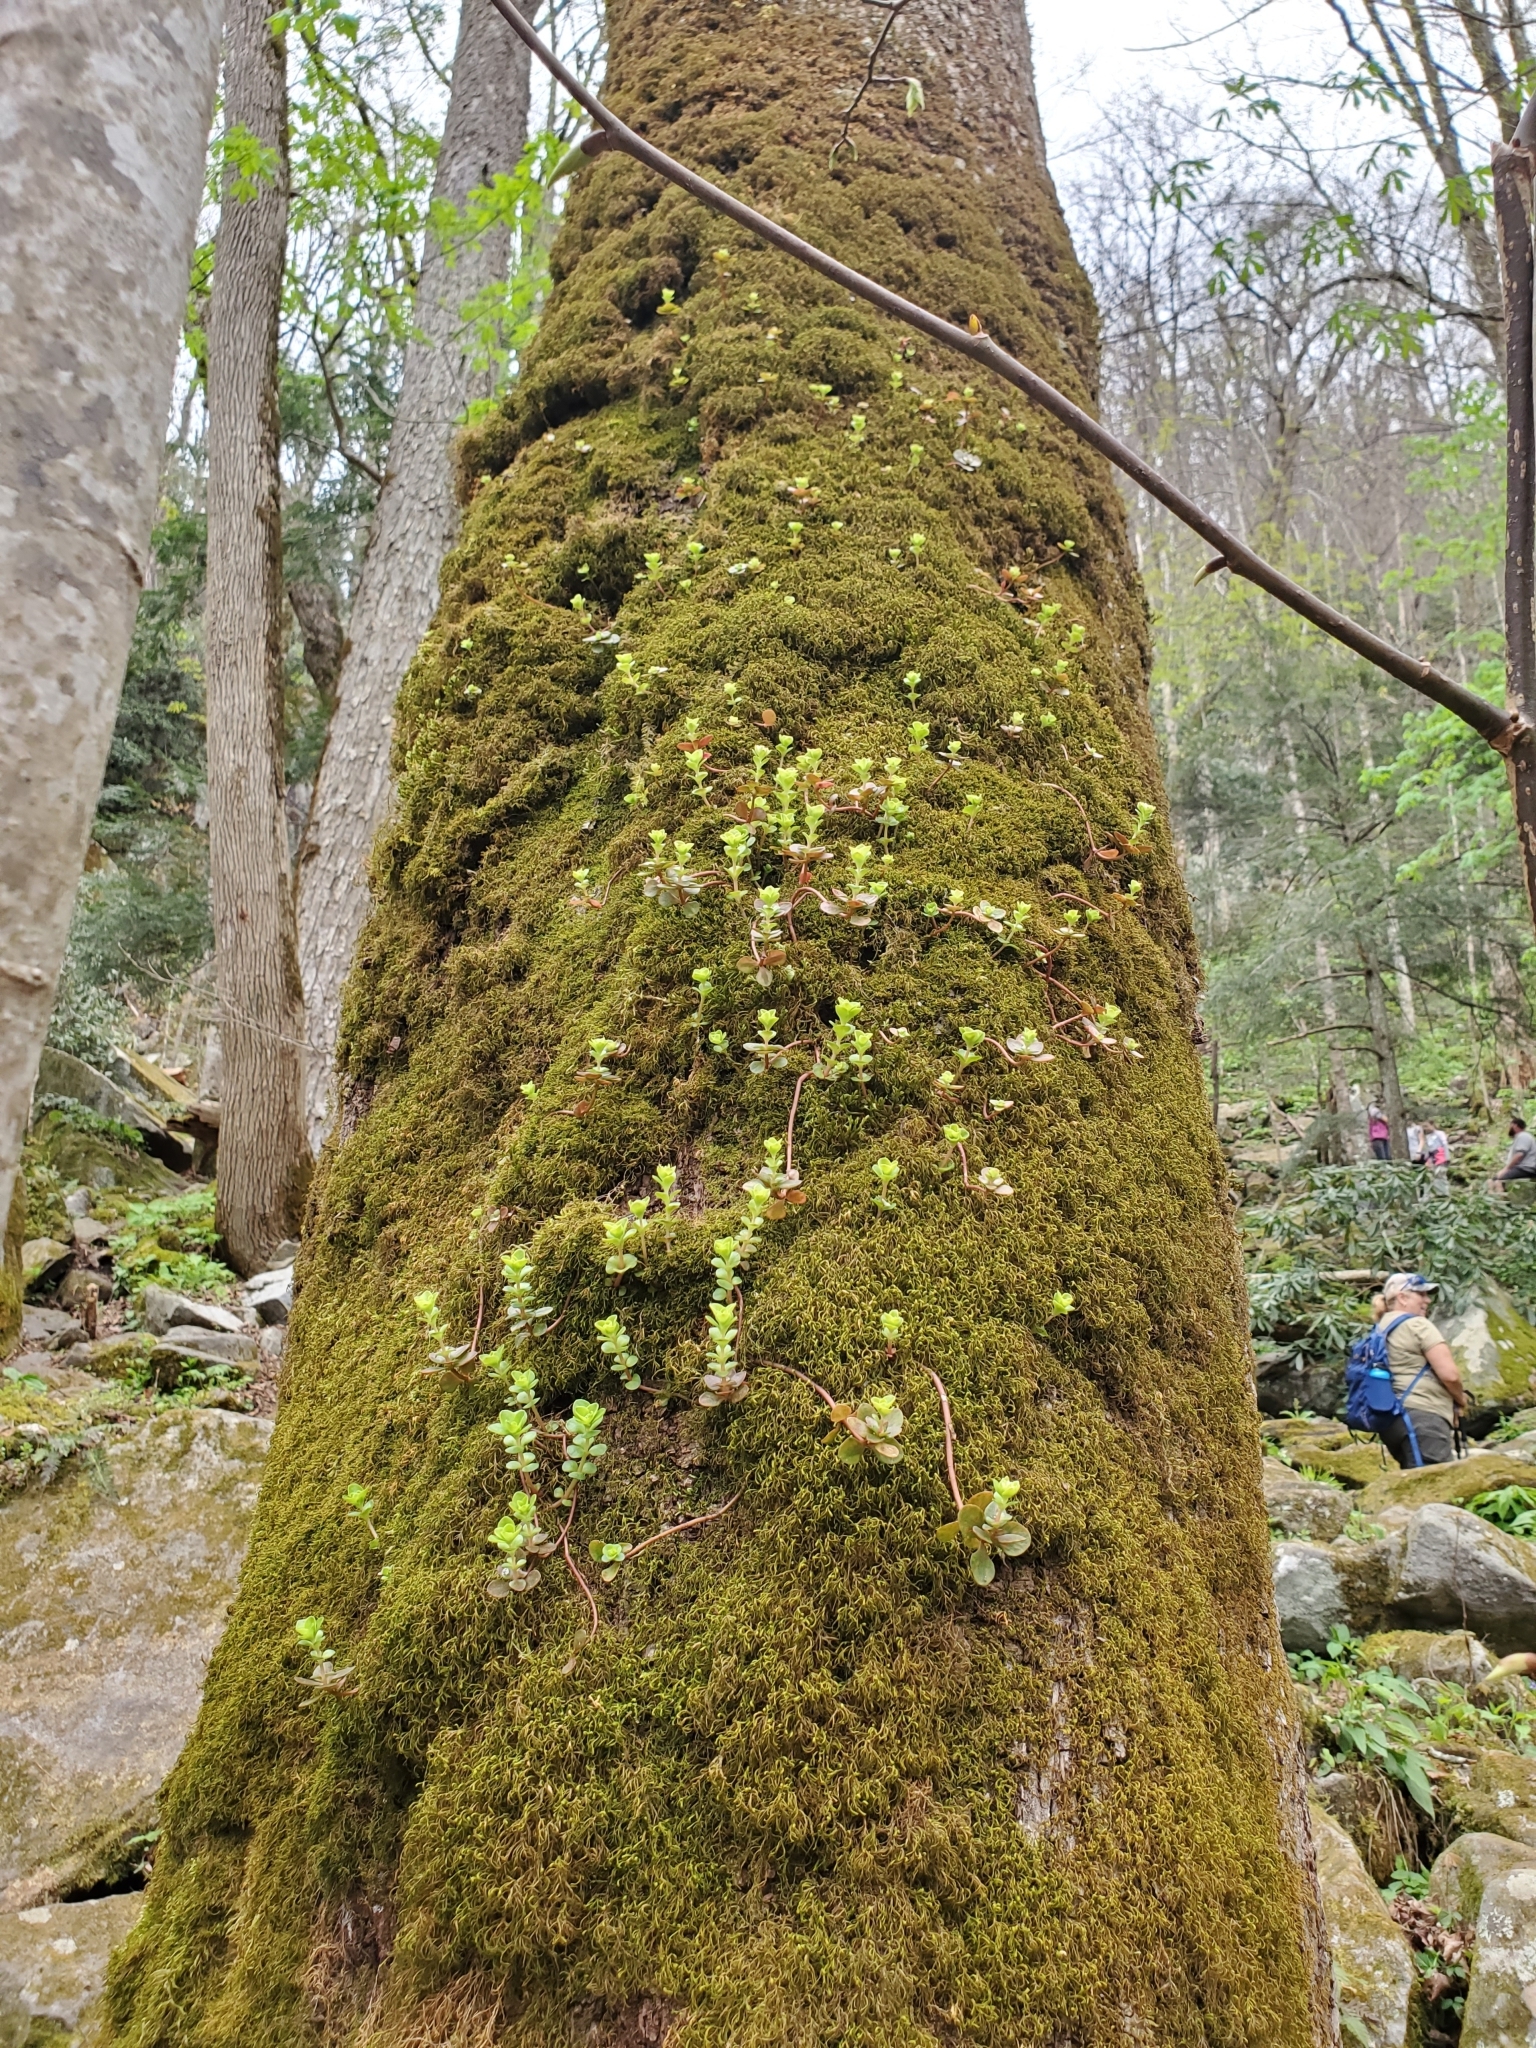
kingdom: Plantae
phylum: Tracheophyta
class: Magnoliopsida
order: Saxifragales
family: Crassulaceae
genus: Sedum
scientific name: Sedum ternatum
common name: Wild stonecrop
